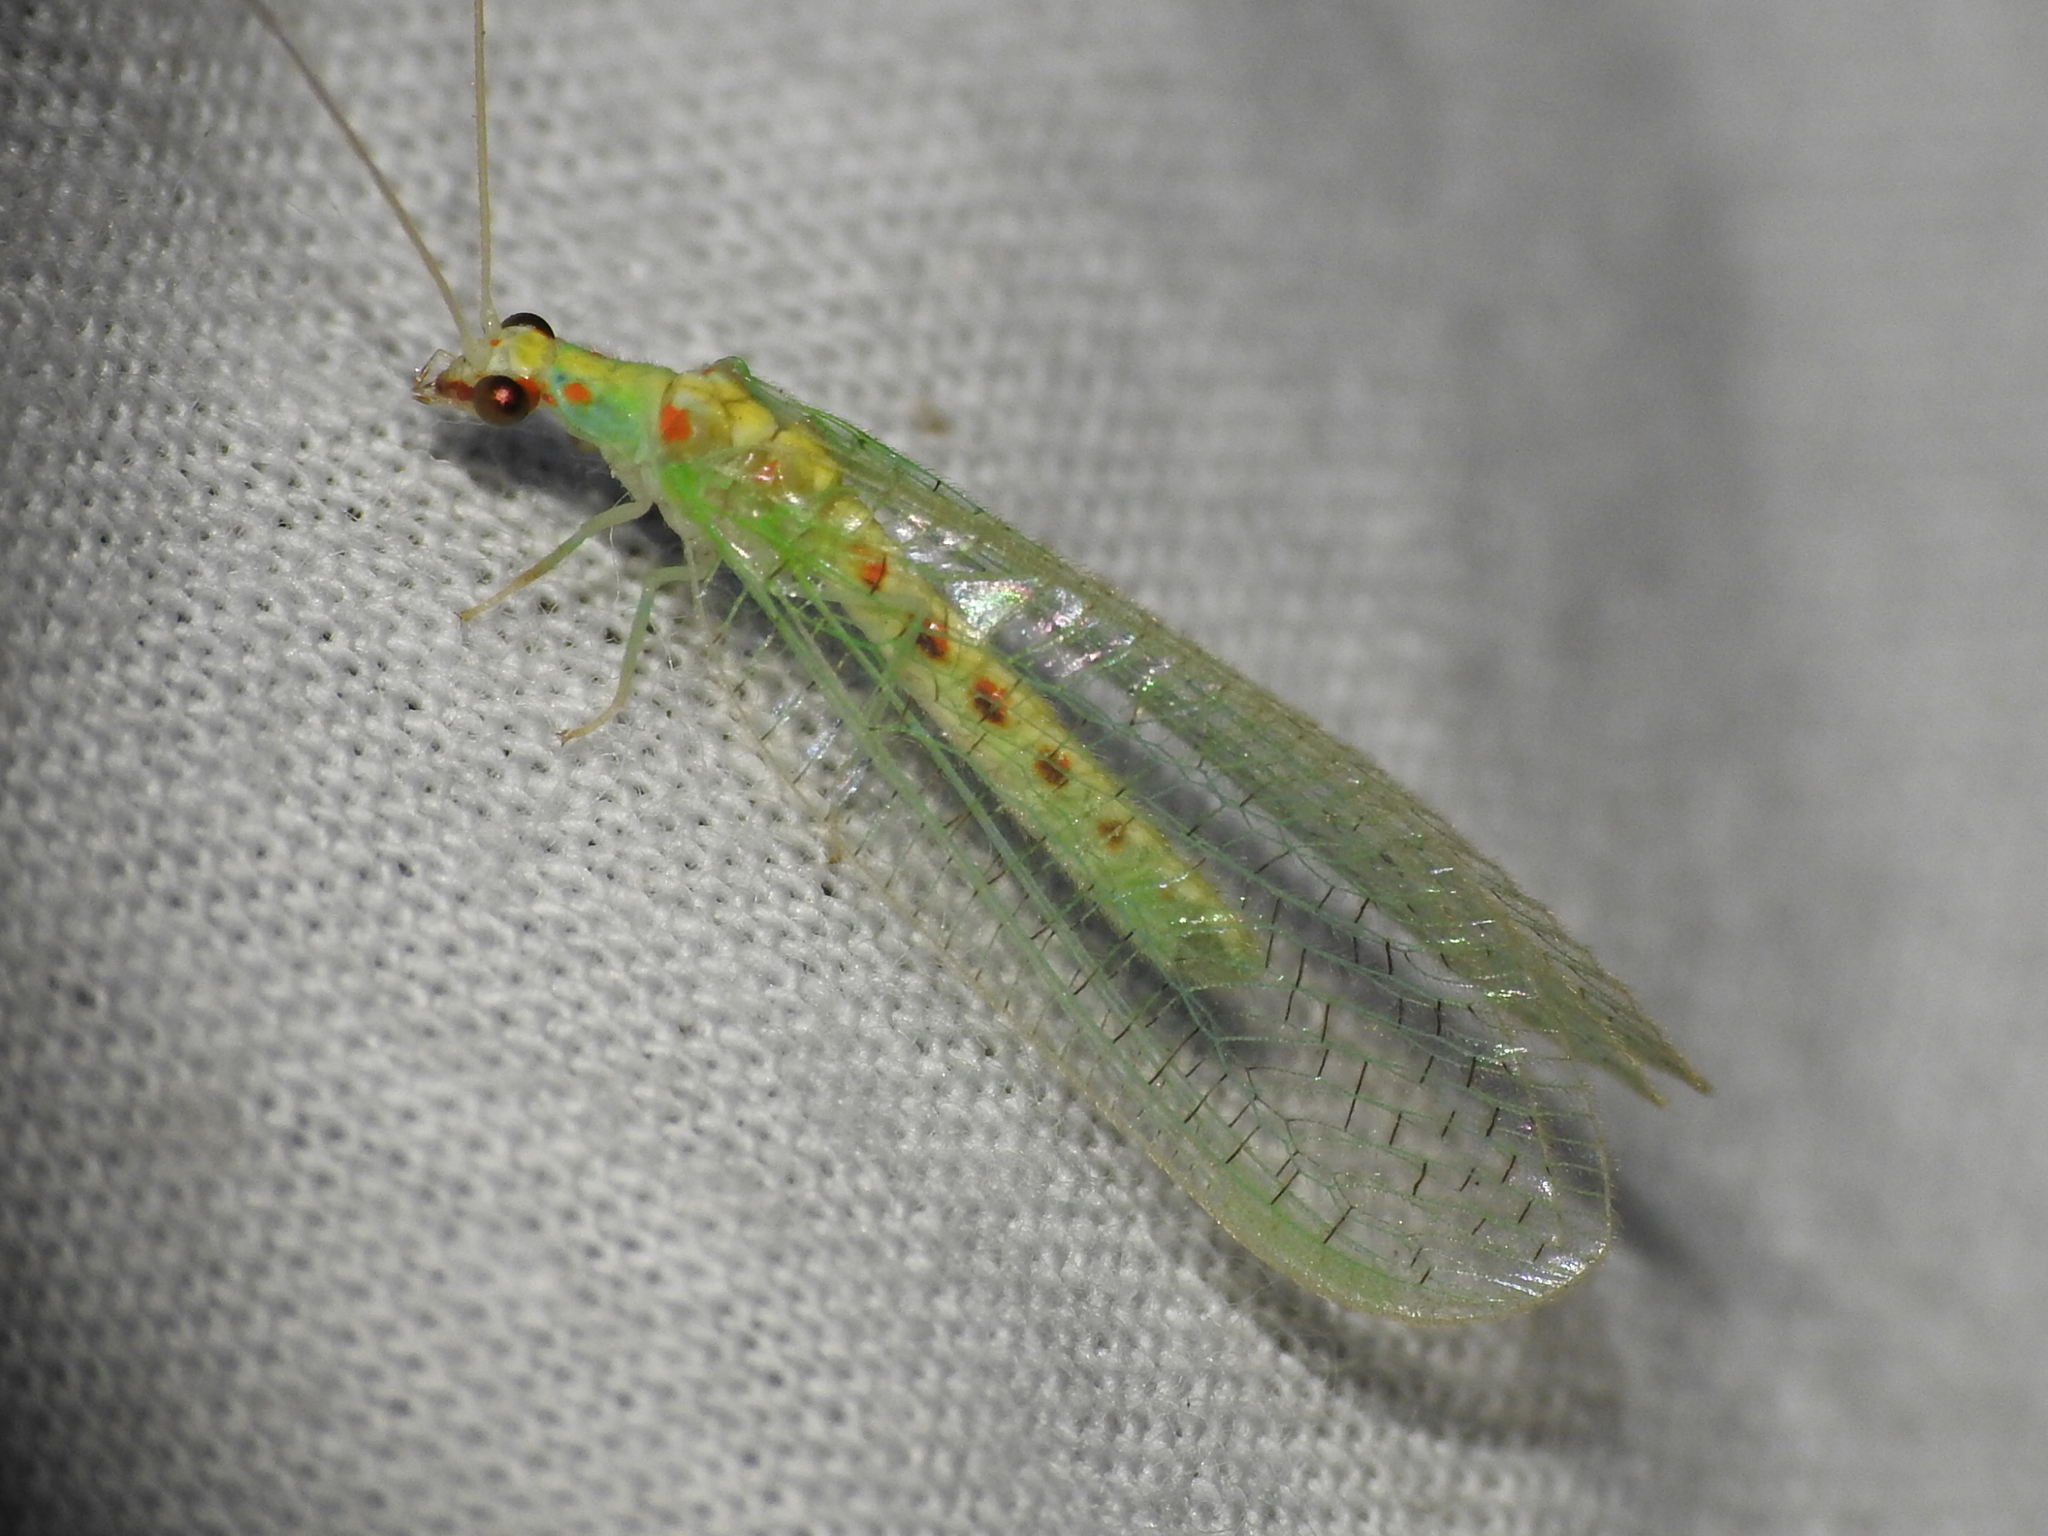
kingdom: Animalia
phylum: Arthropoda
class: Insecta
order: Neuroptera
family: Chrysopidae
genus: Chrysopa
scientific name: Chrysopa quadripunctata
